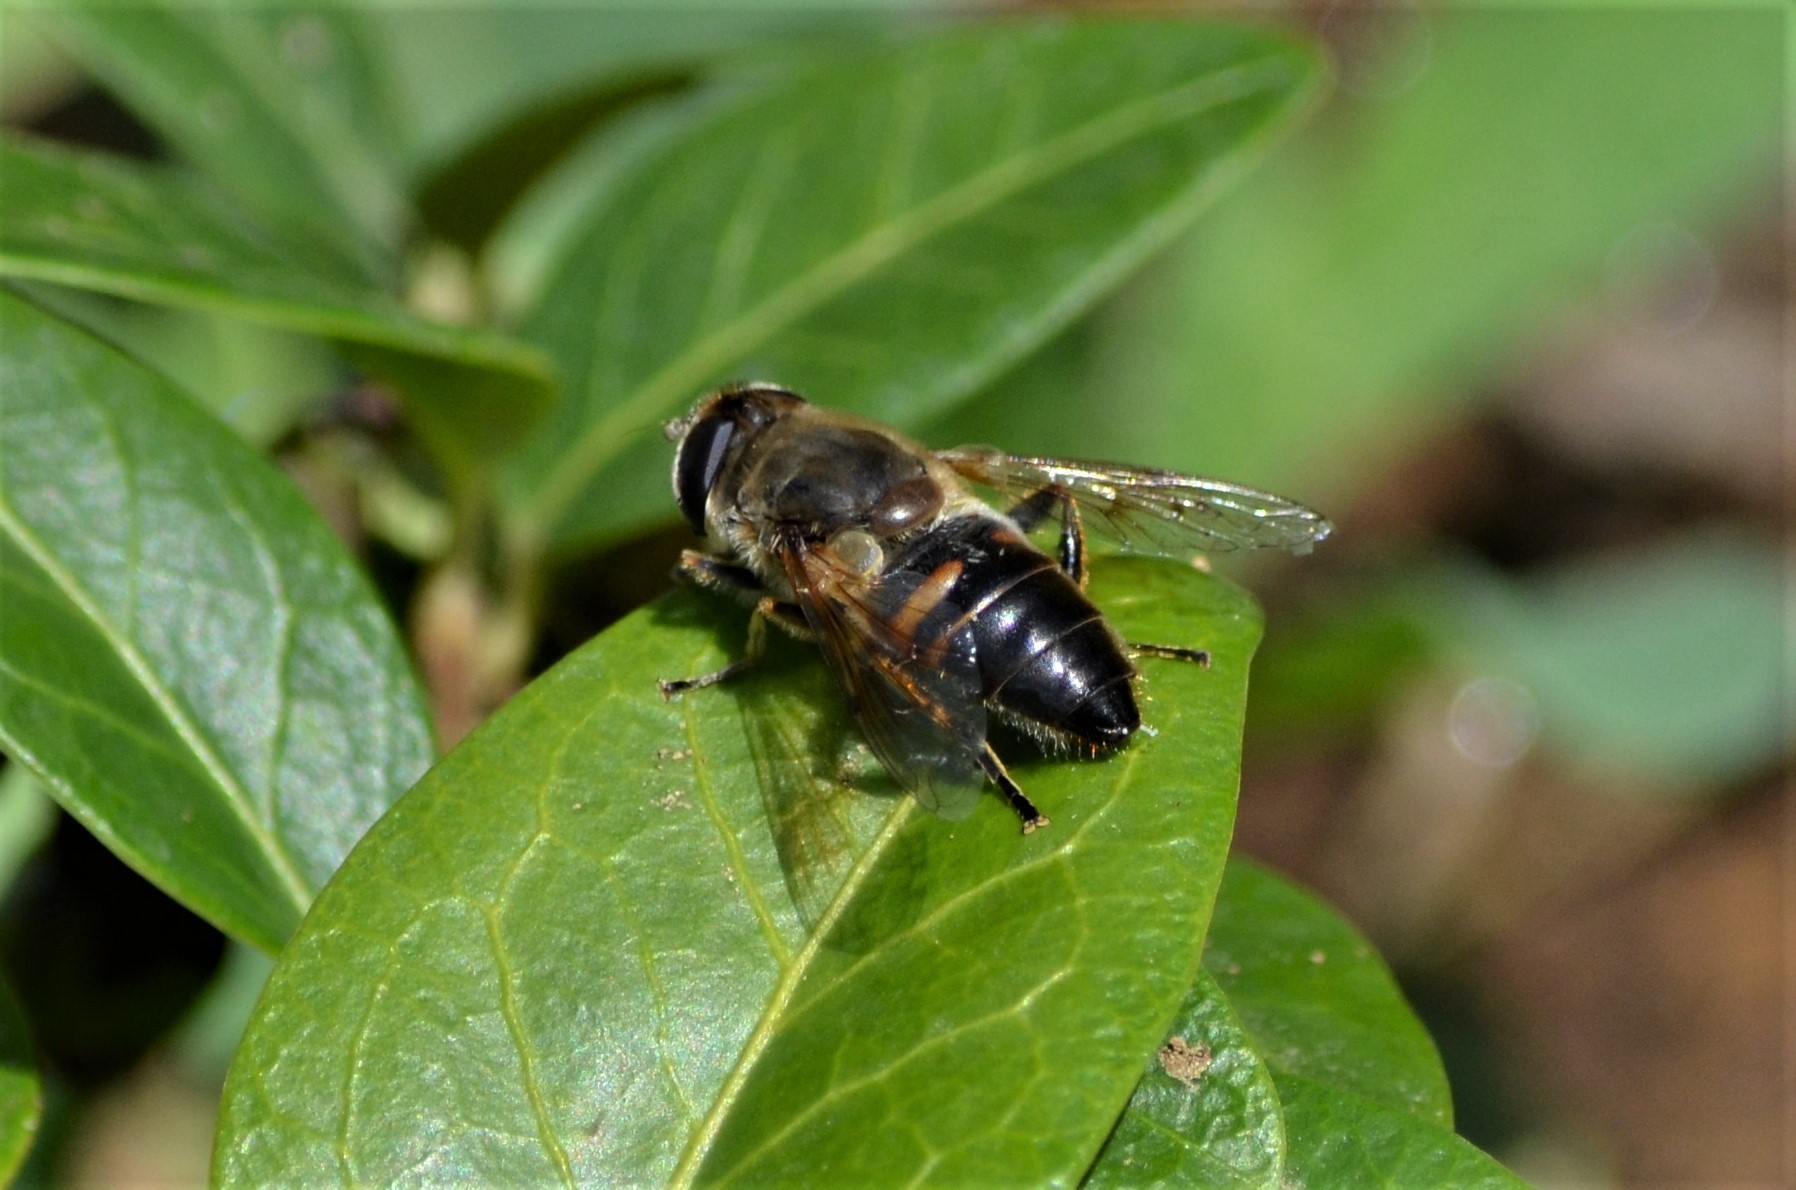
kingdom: Animalia
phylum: Arthropoda
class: Insecta
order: Diptera
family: Syrphidae
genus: Eristalis
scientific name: Eristalis tenax
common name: Drone fly
